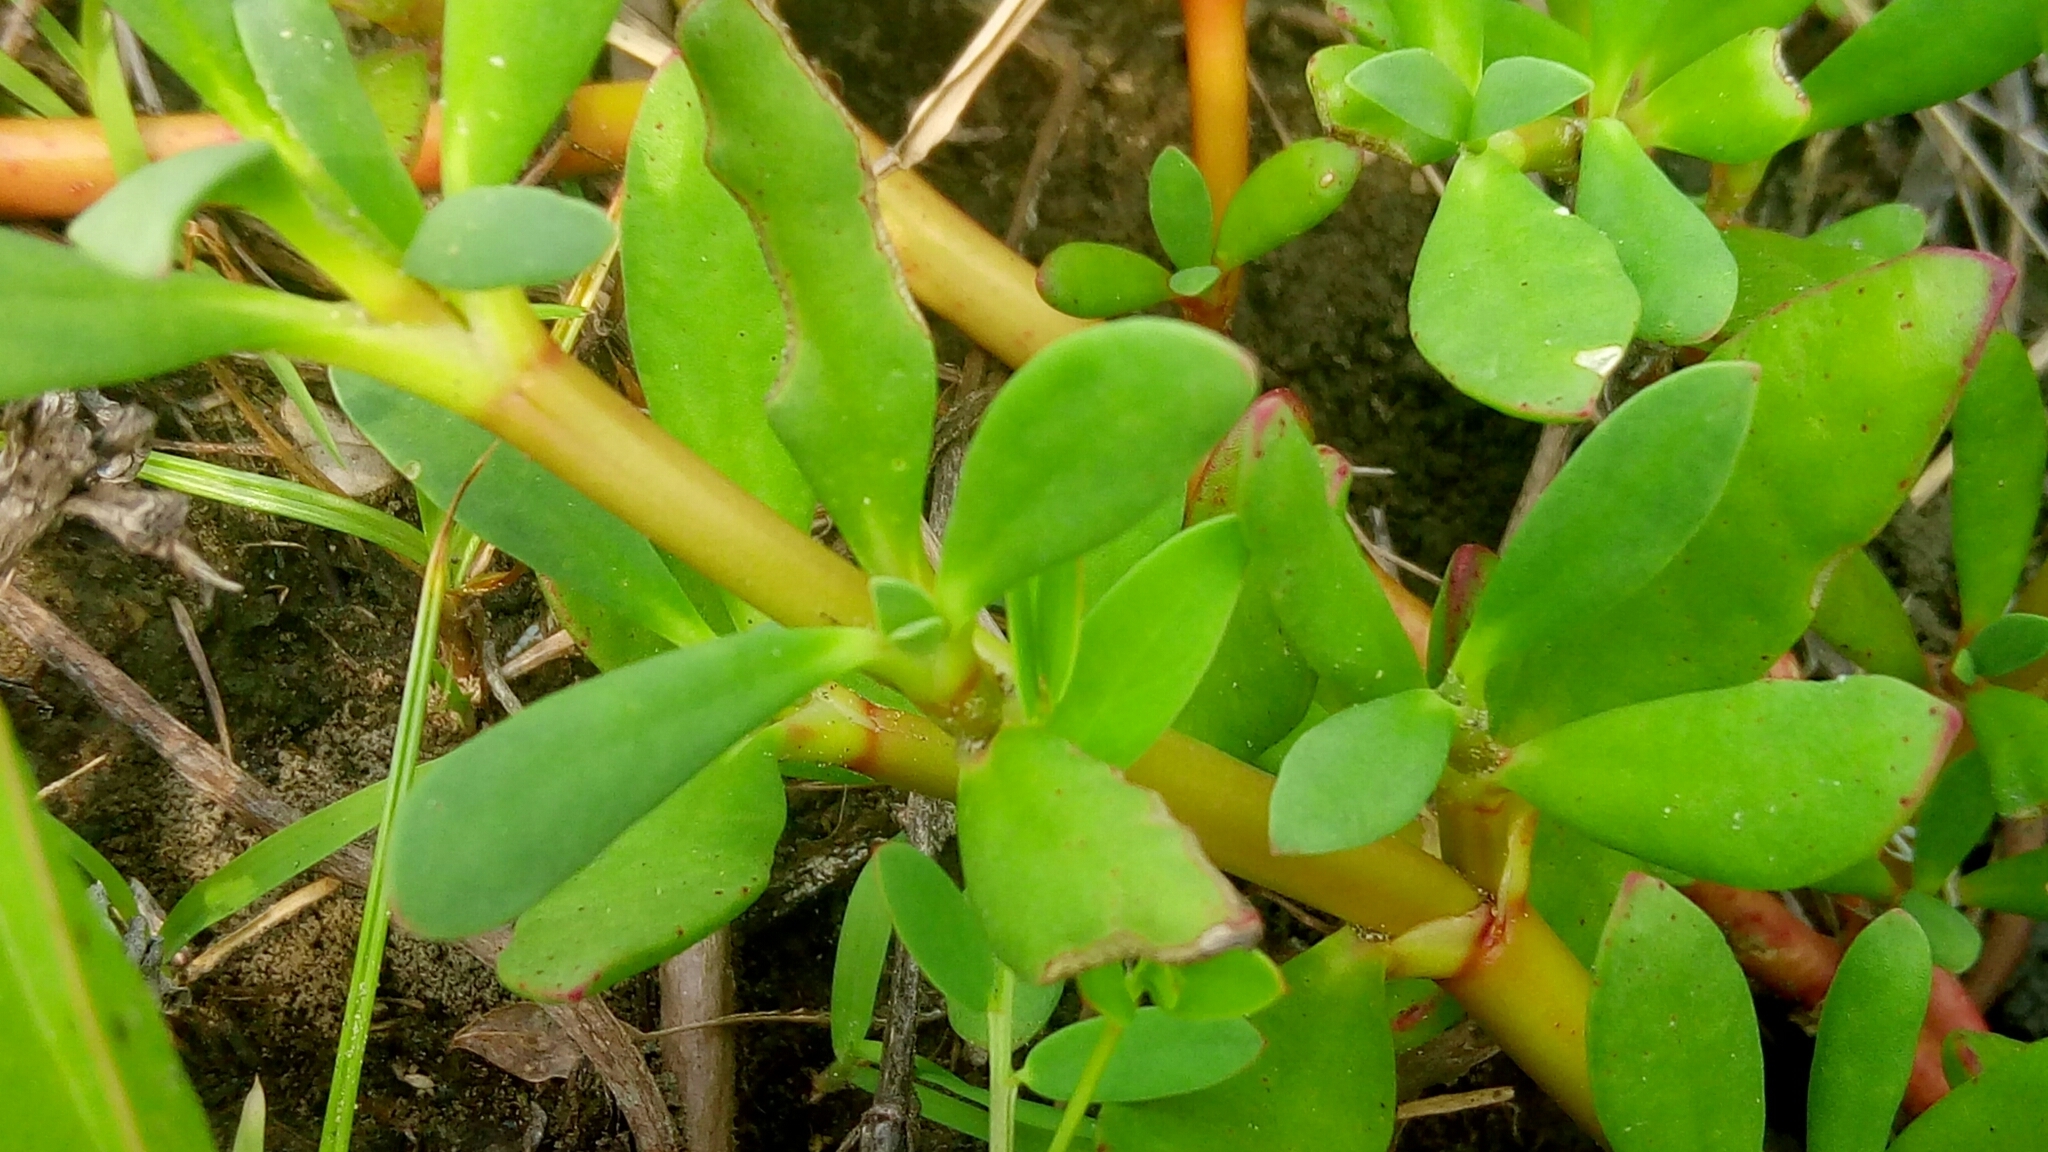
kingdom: Plantae
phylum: Tracheophyta
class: Magnoliopsida
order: Caryophyllales
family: Aizoaceae
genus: Sesuvium
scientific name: Sesuvium portulacastrum
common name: Sea-purslane
